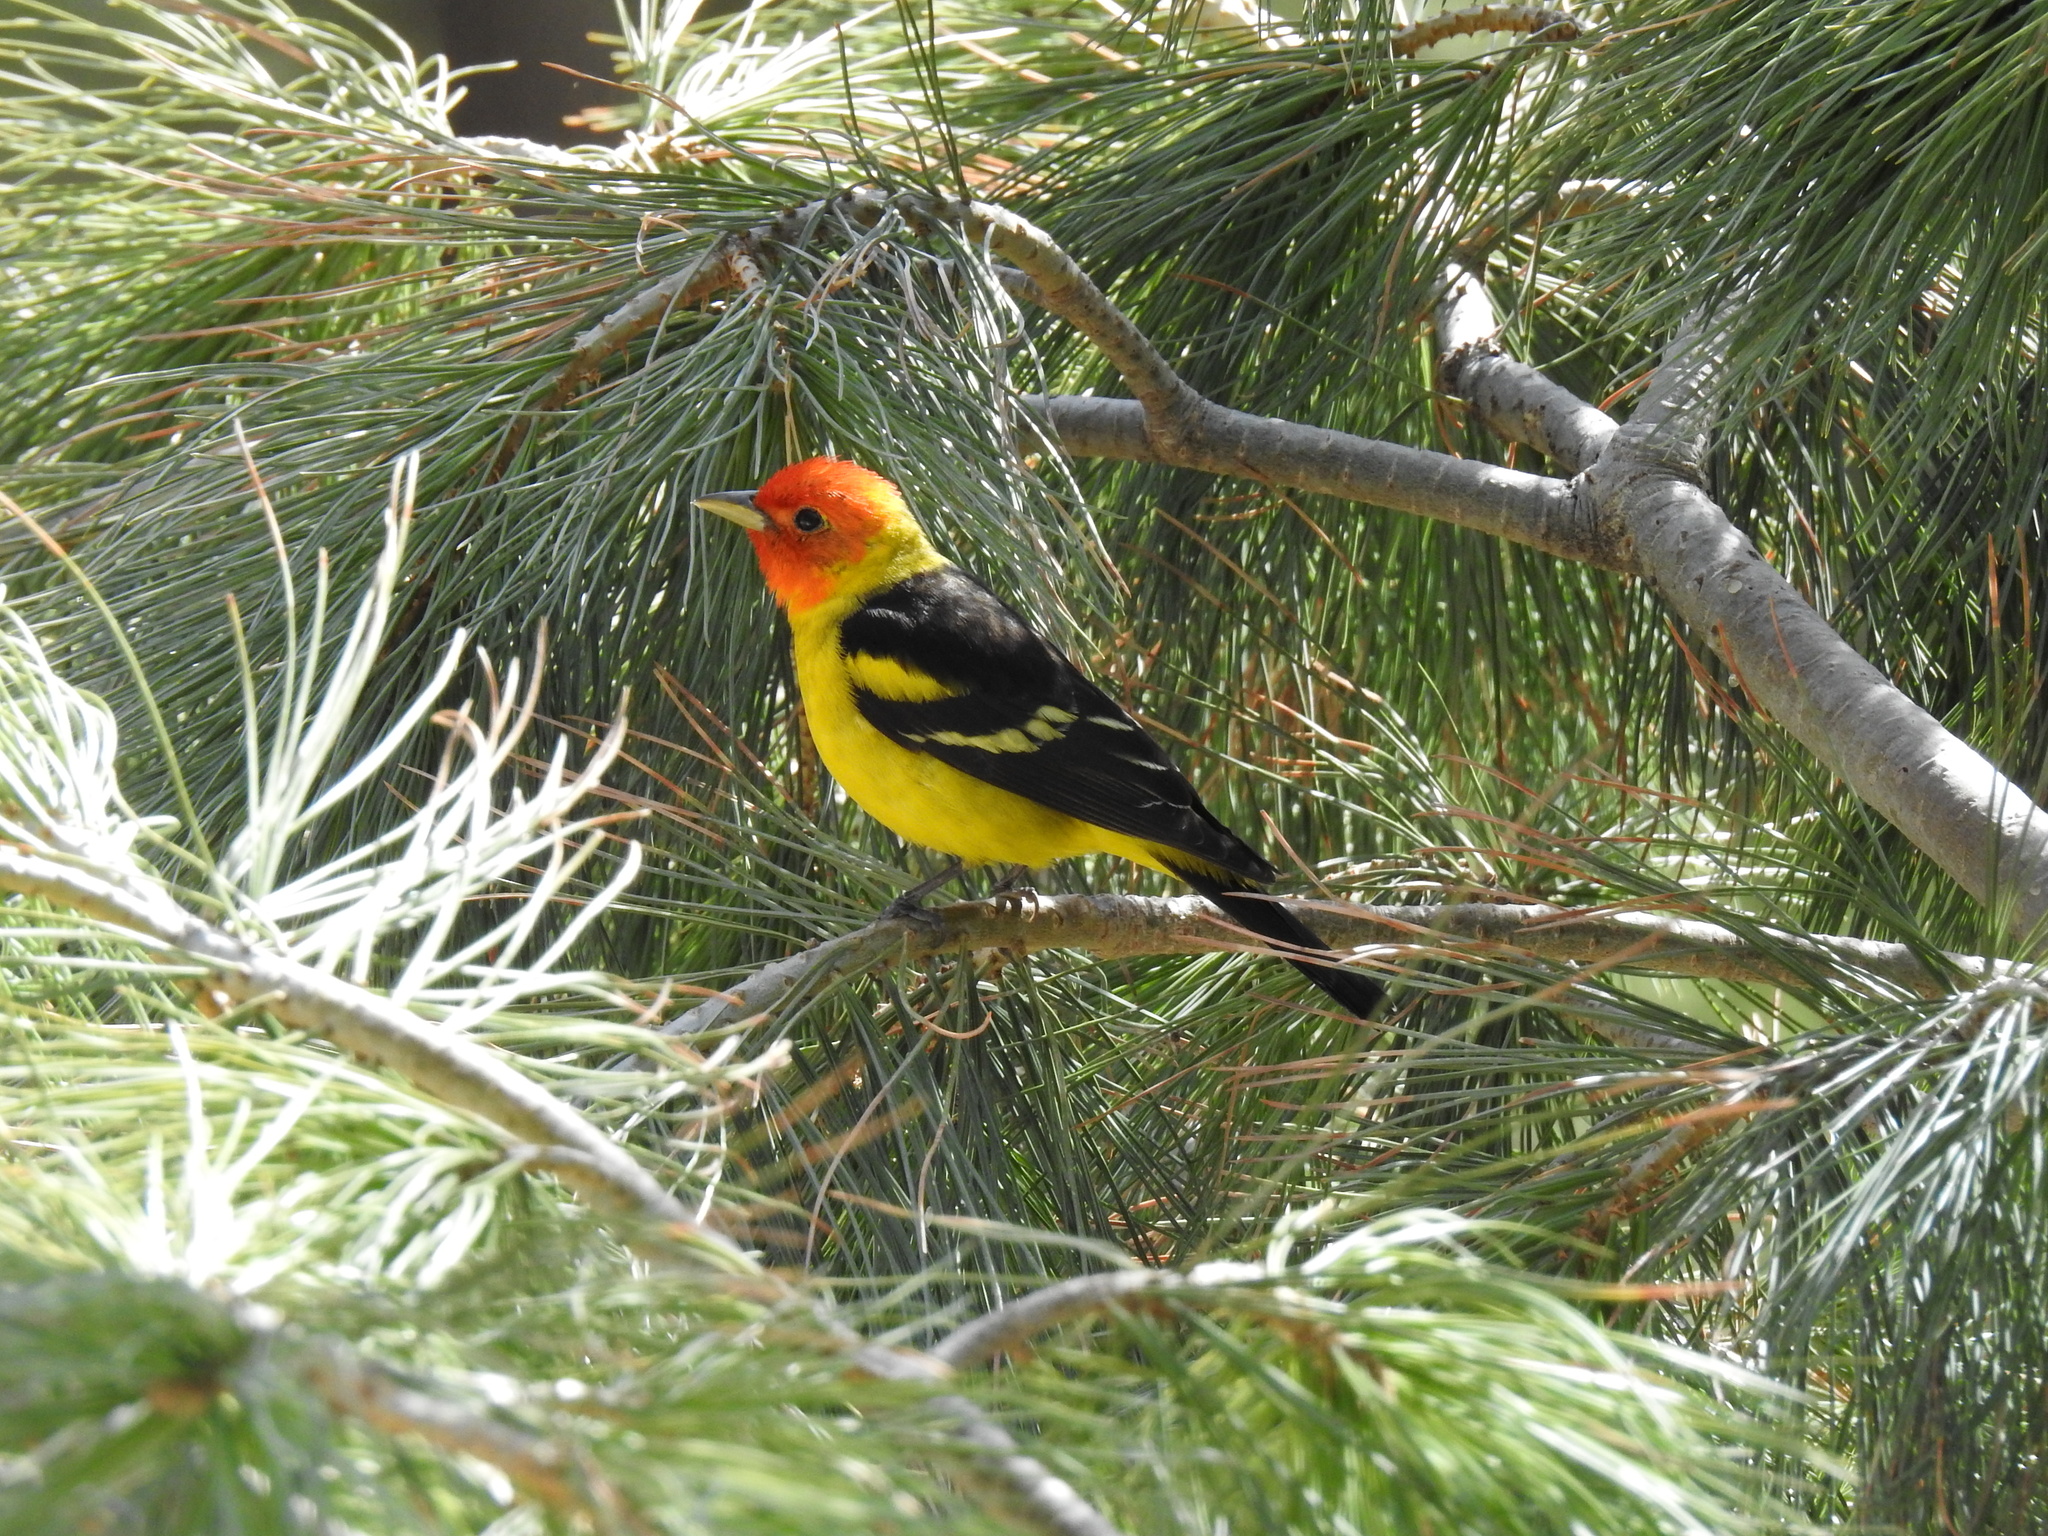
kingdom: Animalia
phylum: Chordata
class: Aves
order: Passeriformes
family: Cardinalidae
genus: Piranga
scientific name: Piranga ludoviciana
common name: Western tanager
